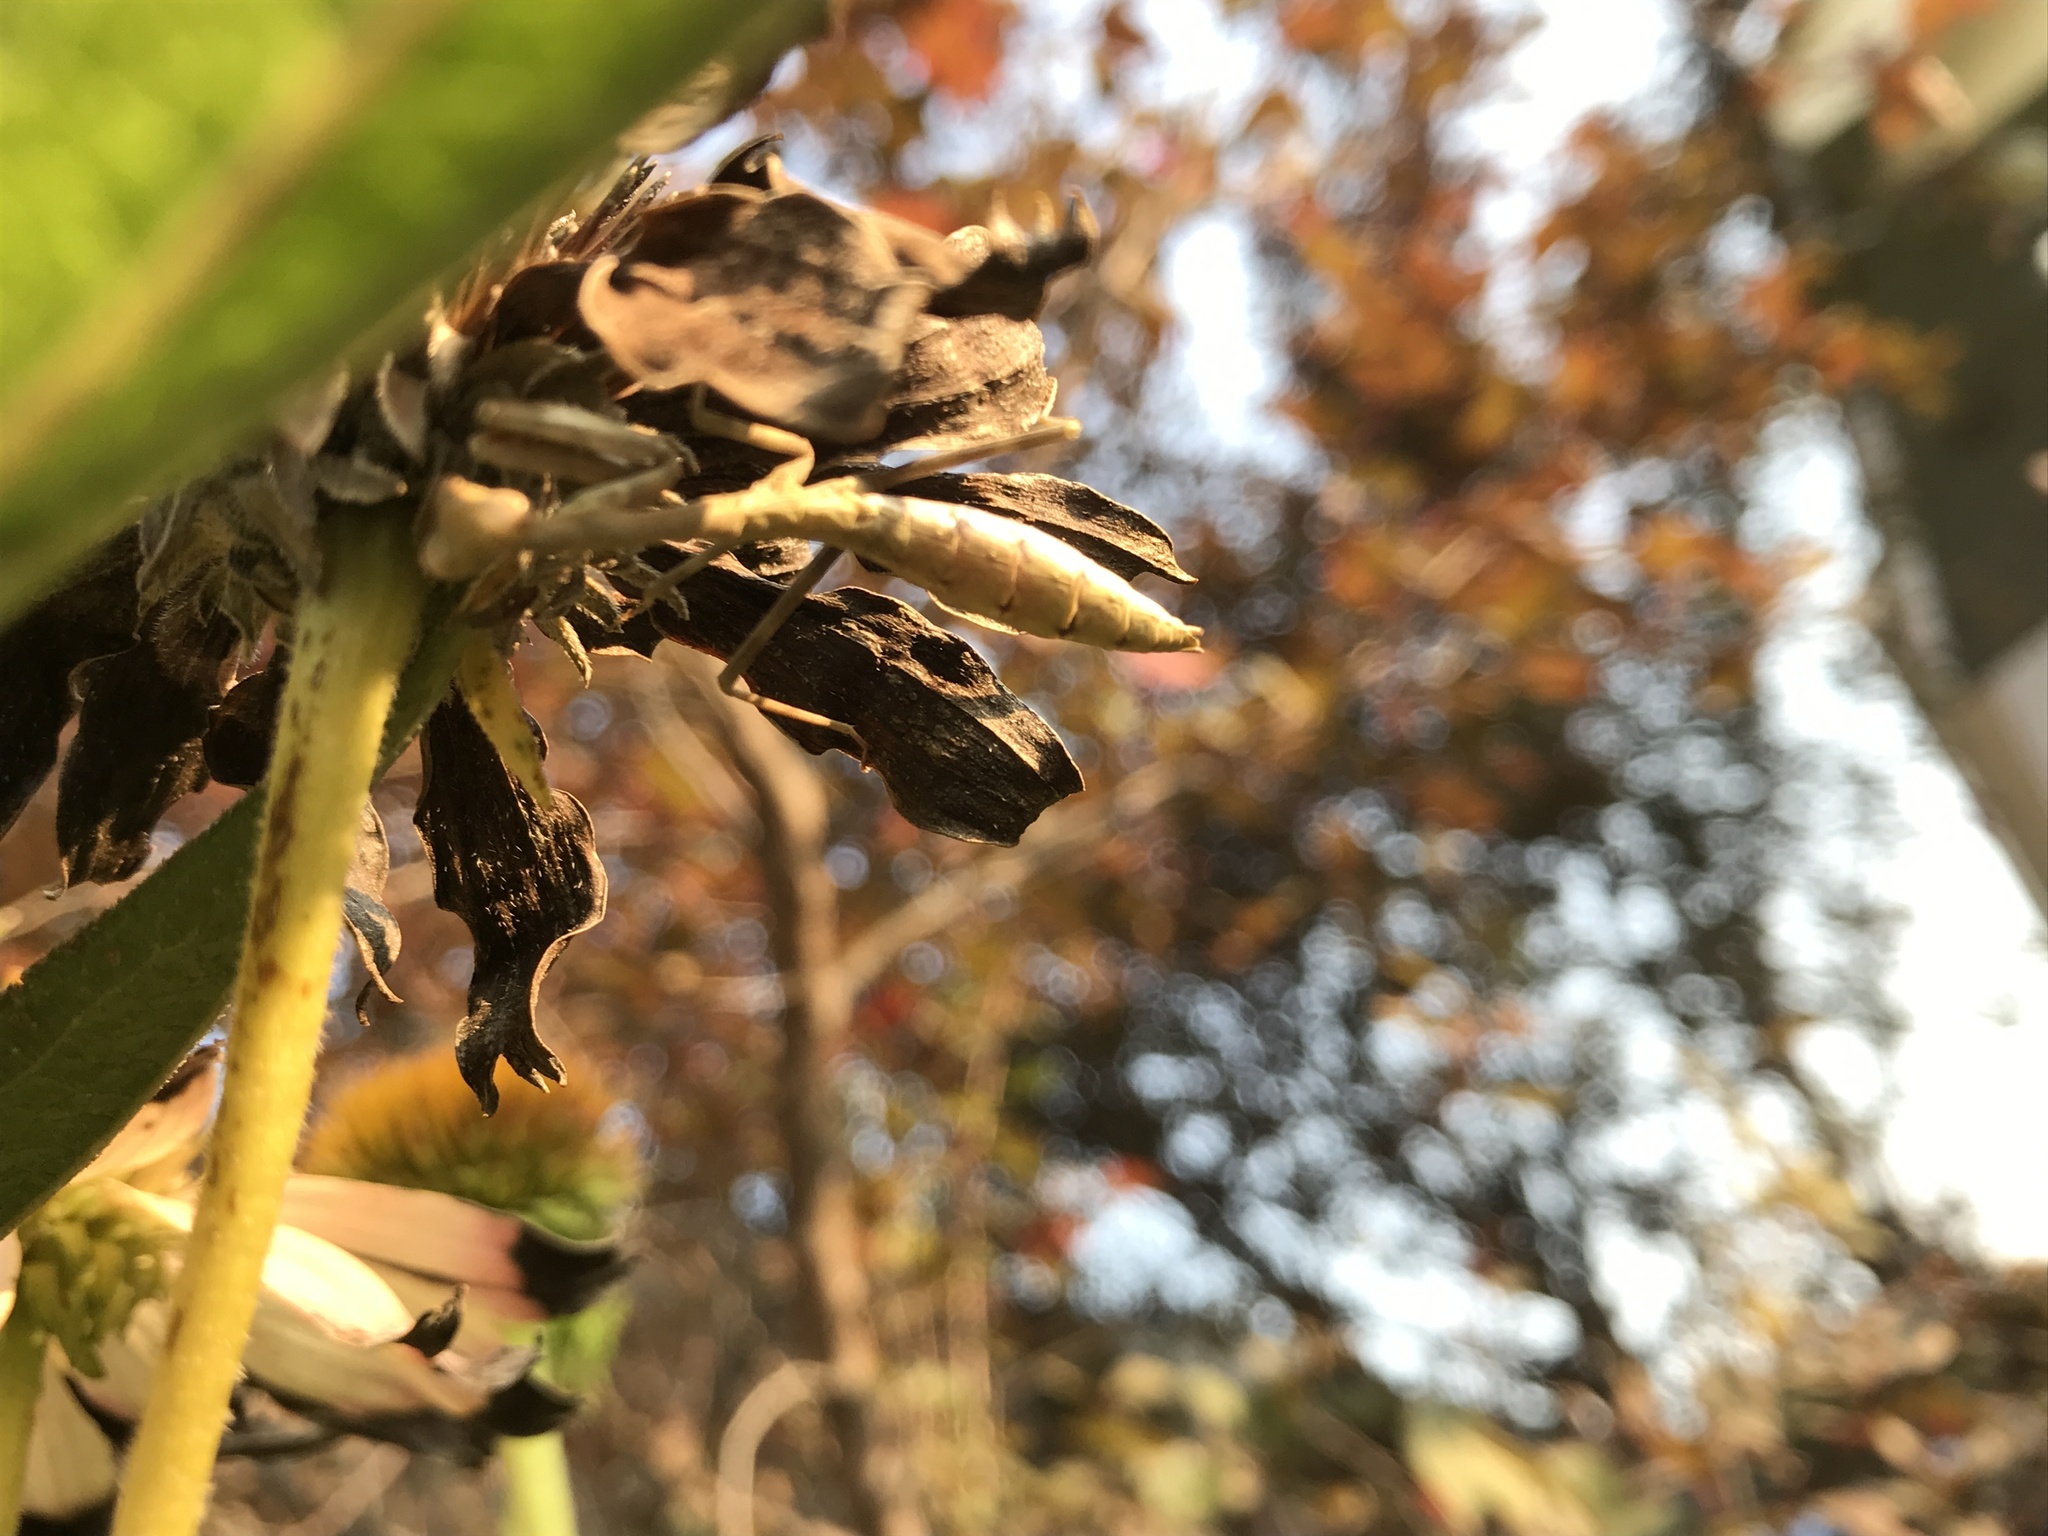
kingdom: Animalia
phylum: Arthropoda
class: Insecta
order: Mantodea
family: Mantidae
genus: Stagmomantis
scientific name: Stagmomantis carolina
